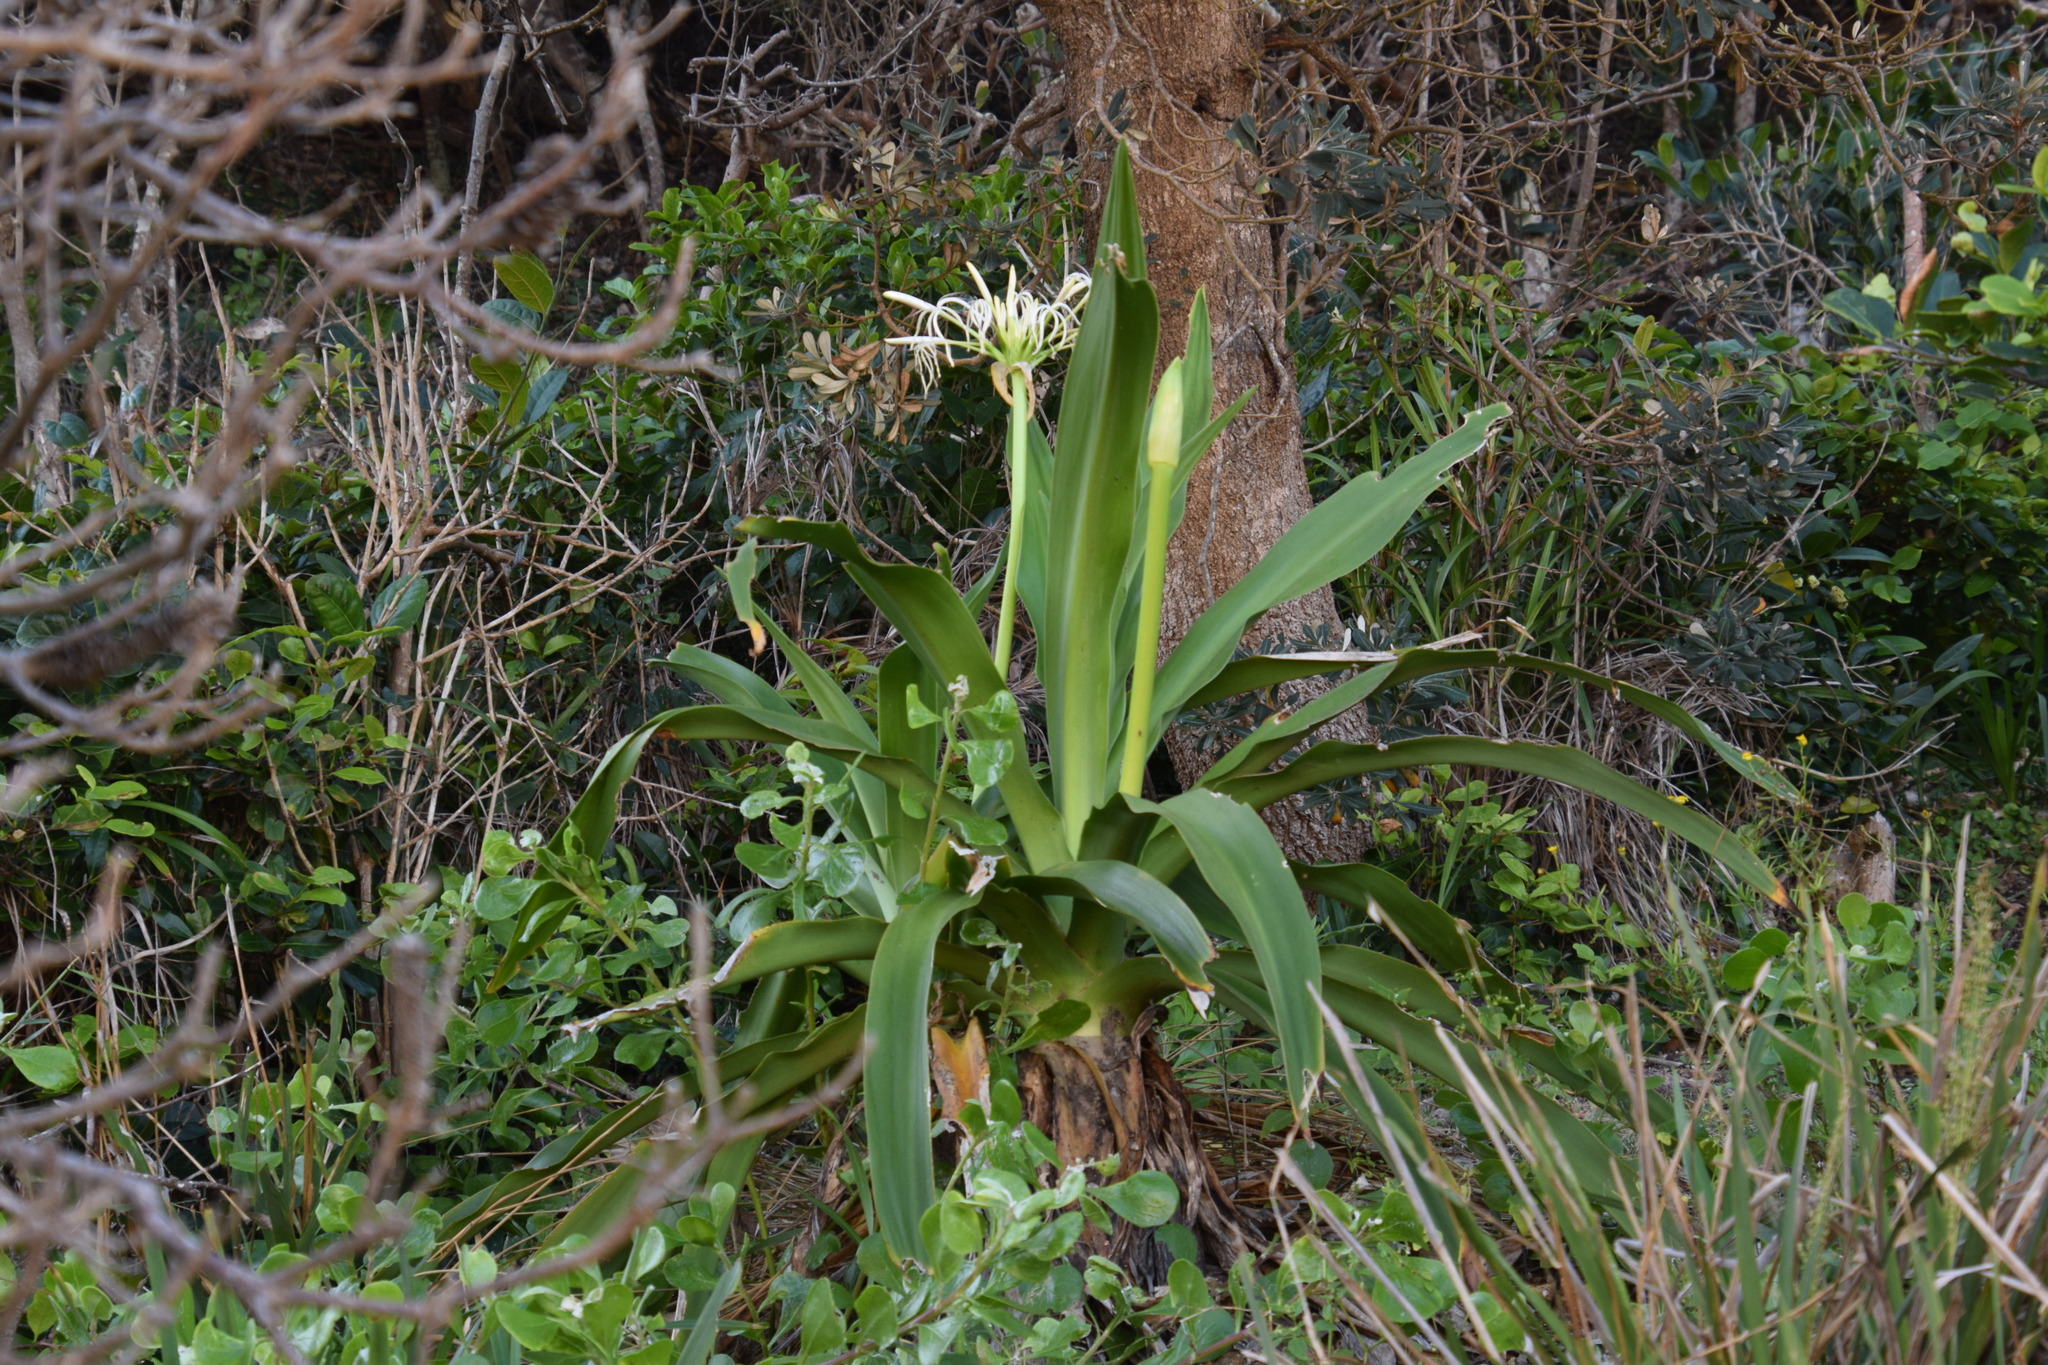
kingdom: Plantae
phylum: Tracheophyta
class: Liliopsida
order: Asparagales
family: Amaryllidaceae
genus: Crinum
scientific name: Crinum pedunculatum
